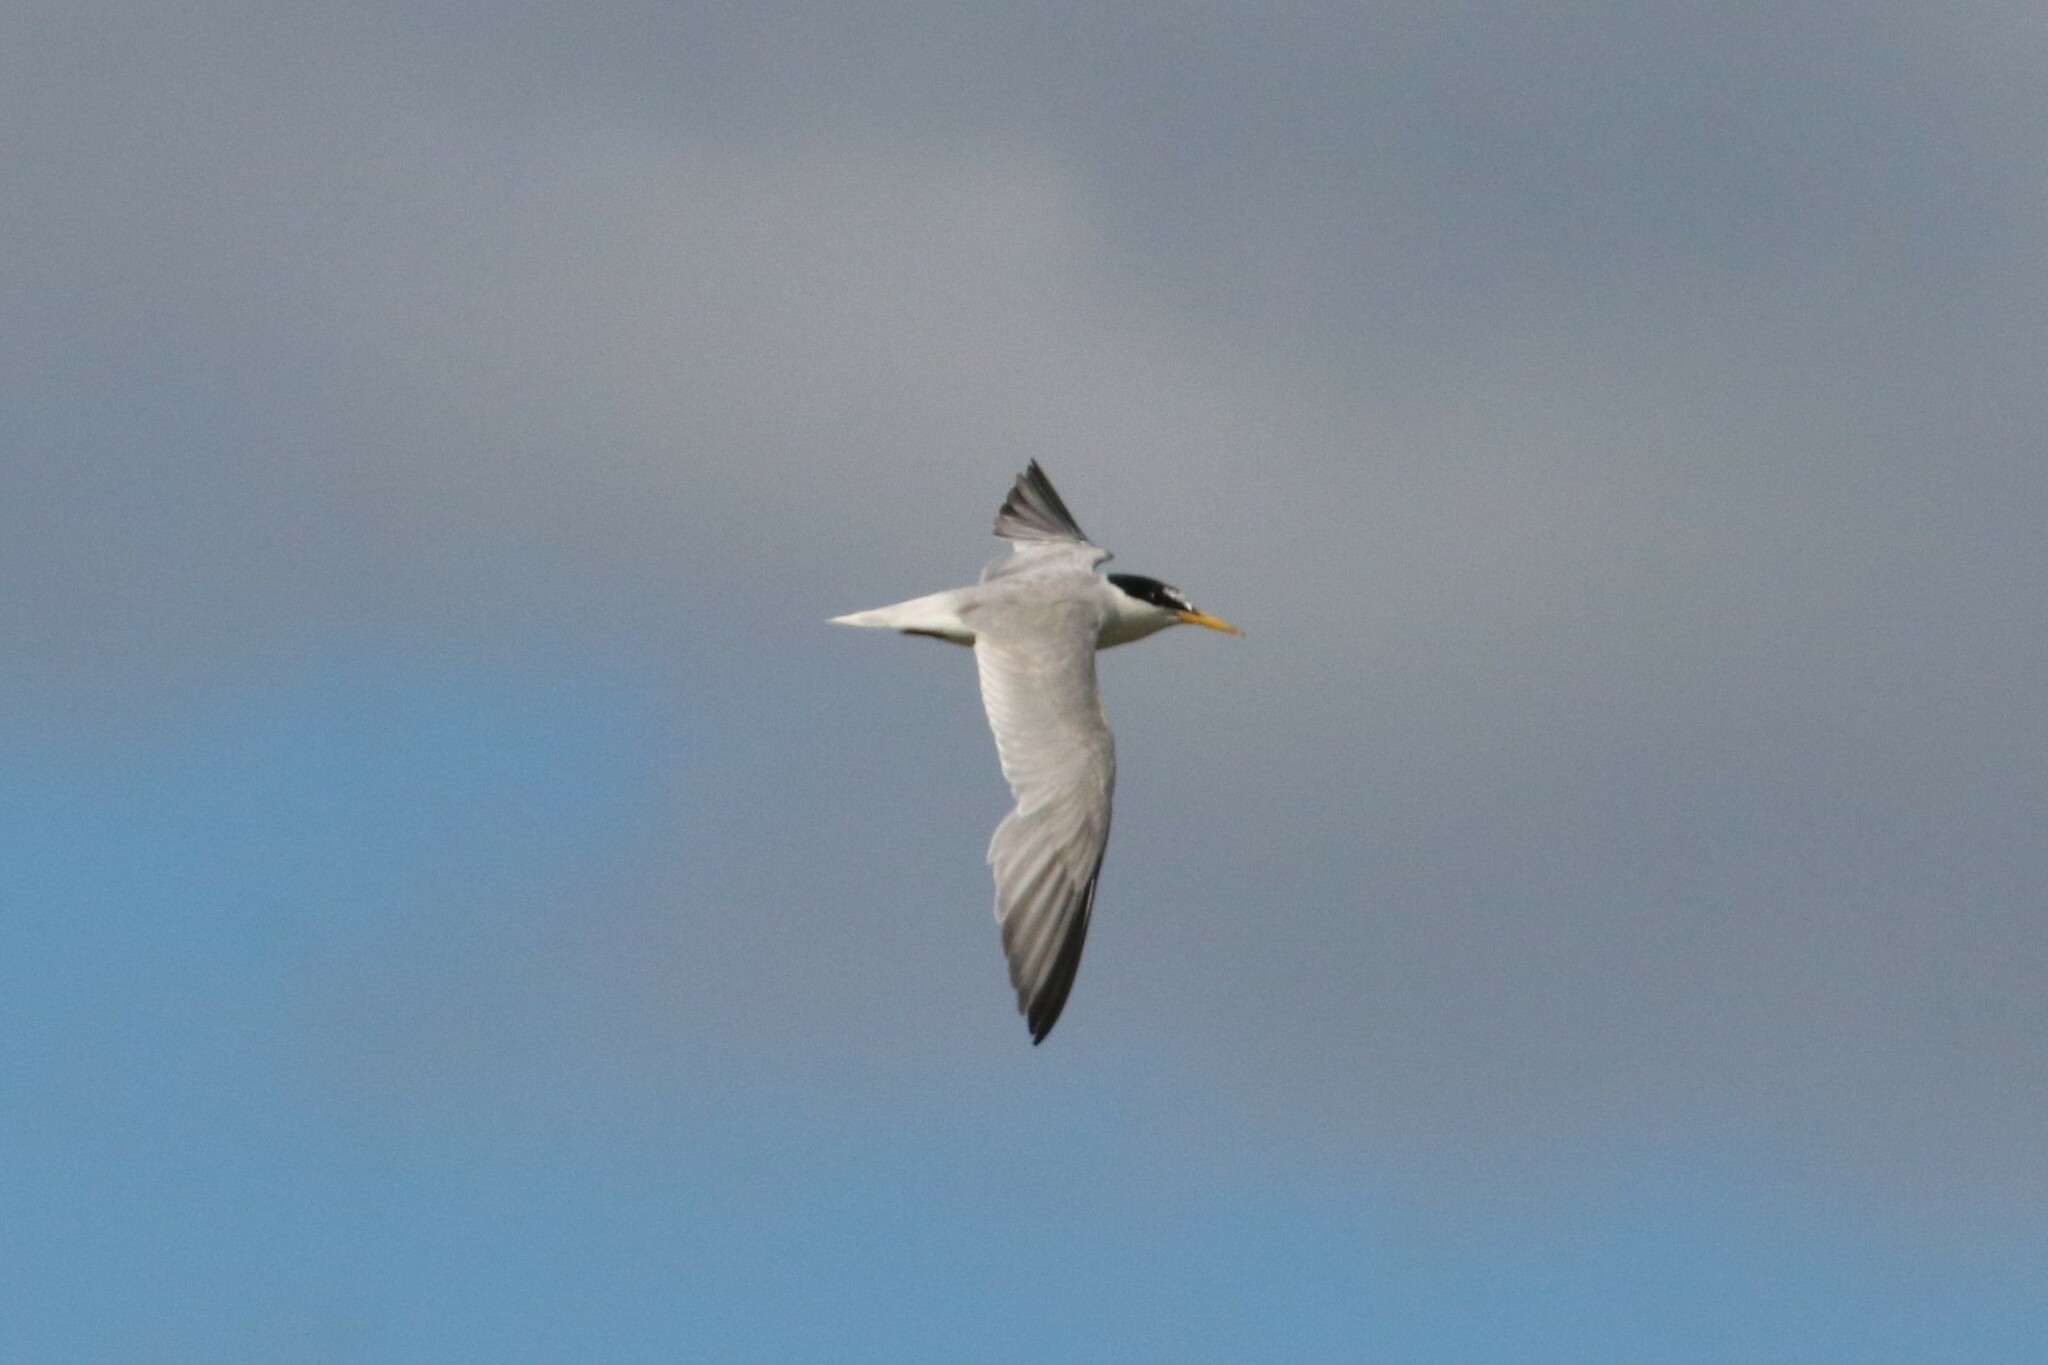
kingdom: Animalia
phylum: Chordata
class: Aves
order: Charadriiformes
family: Laridae
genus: Sternula
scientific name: Sternula albifrons
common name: Little tern
